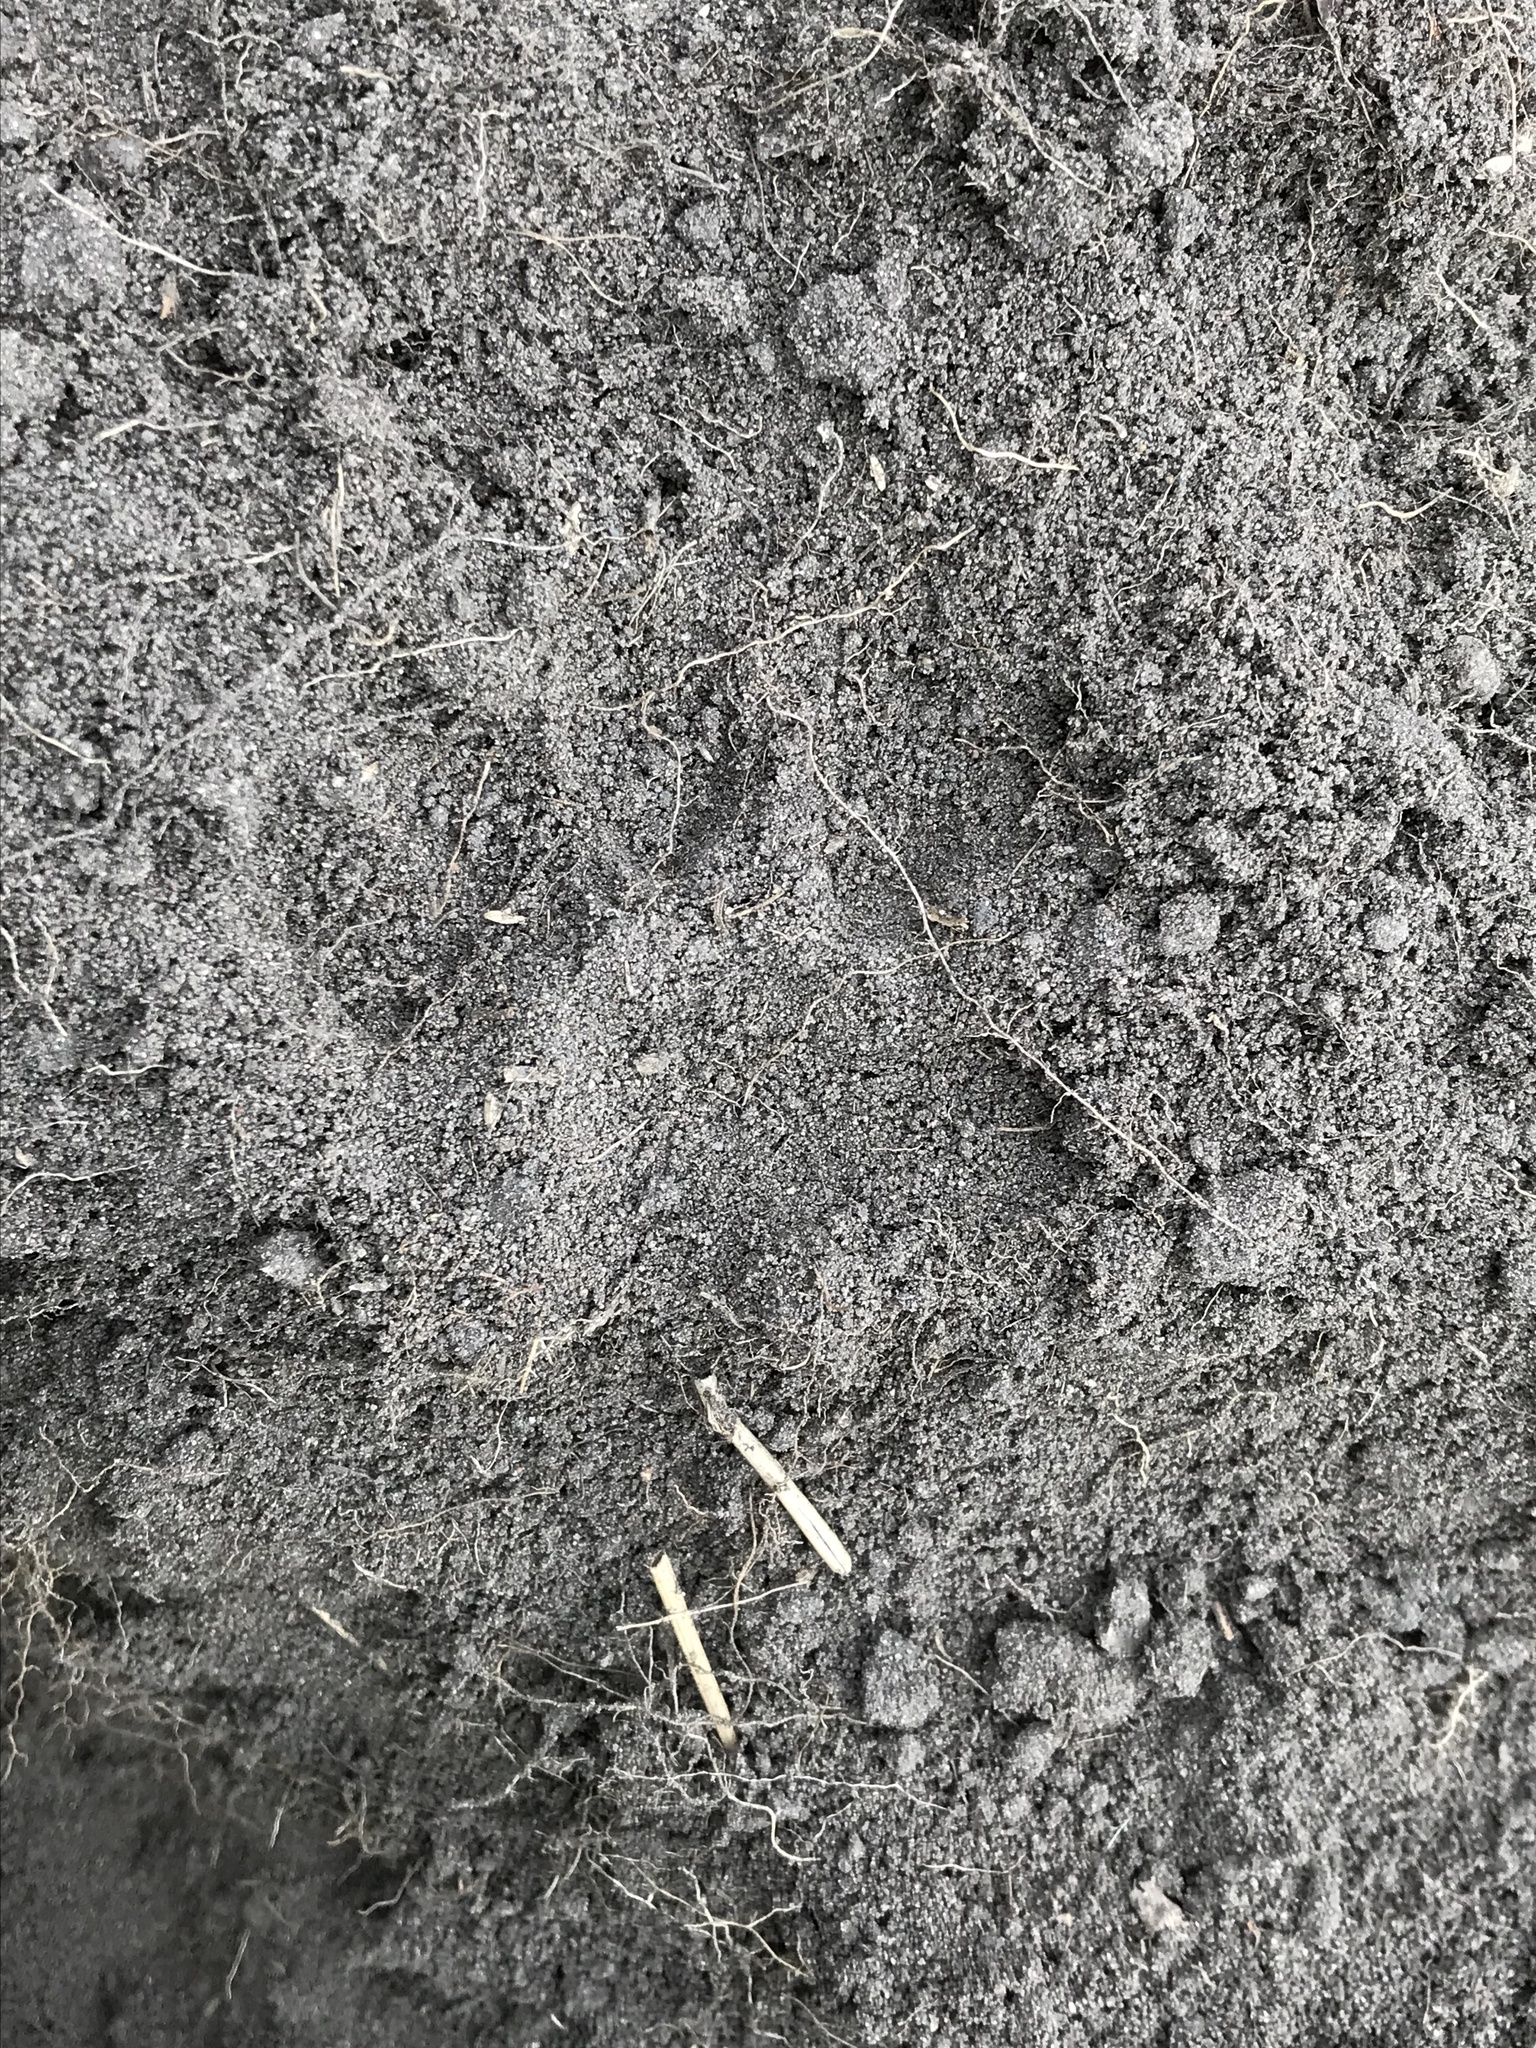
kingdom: Animalia
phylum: Chordata
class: Mammalia
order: Carnivora
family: Mustelidae
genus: Taxidea
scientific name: Taxidea taxus
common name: American badger
